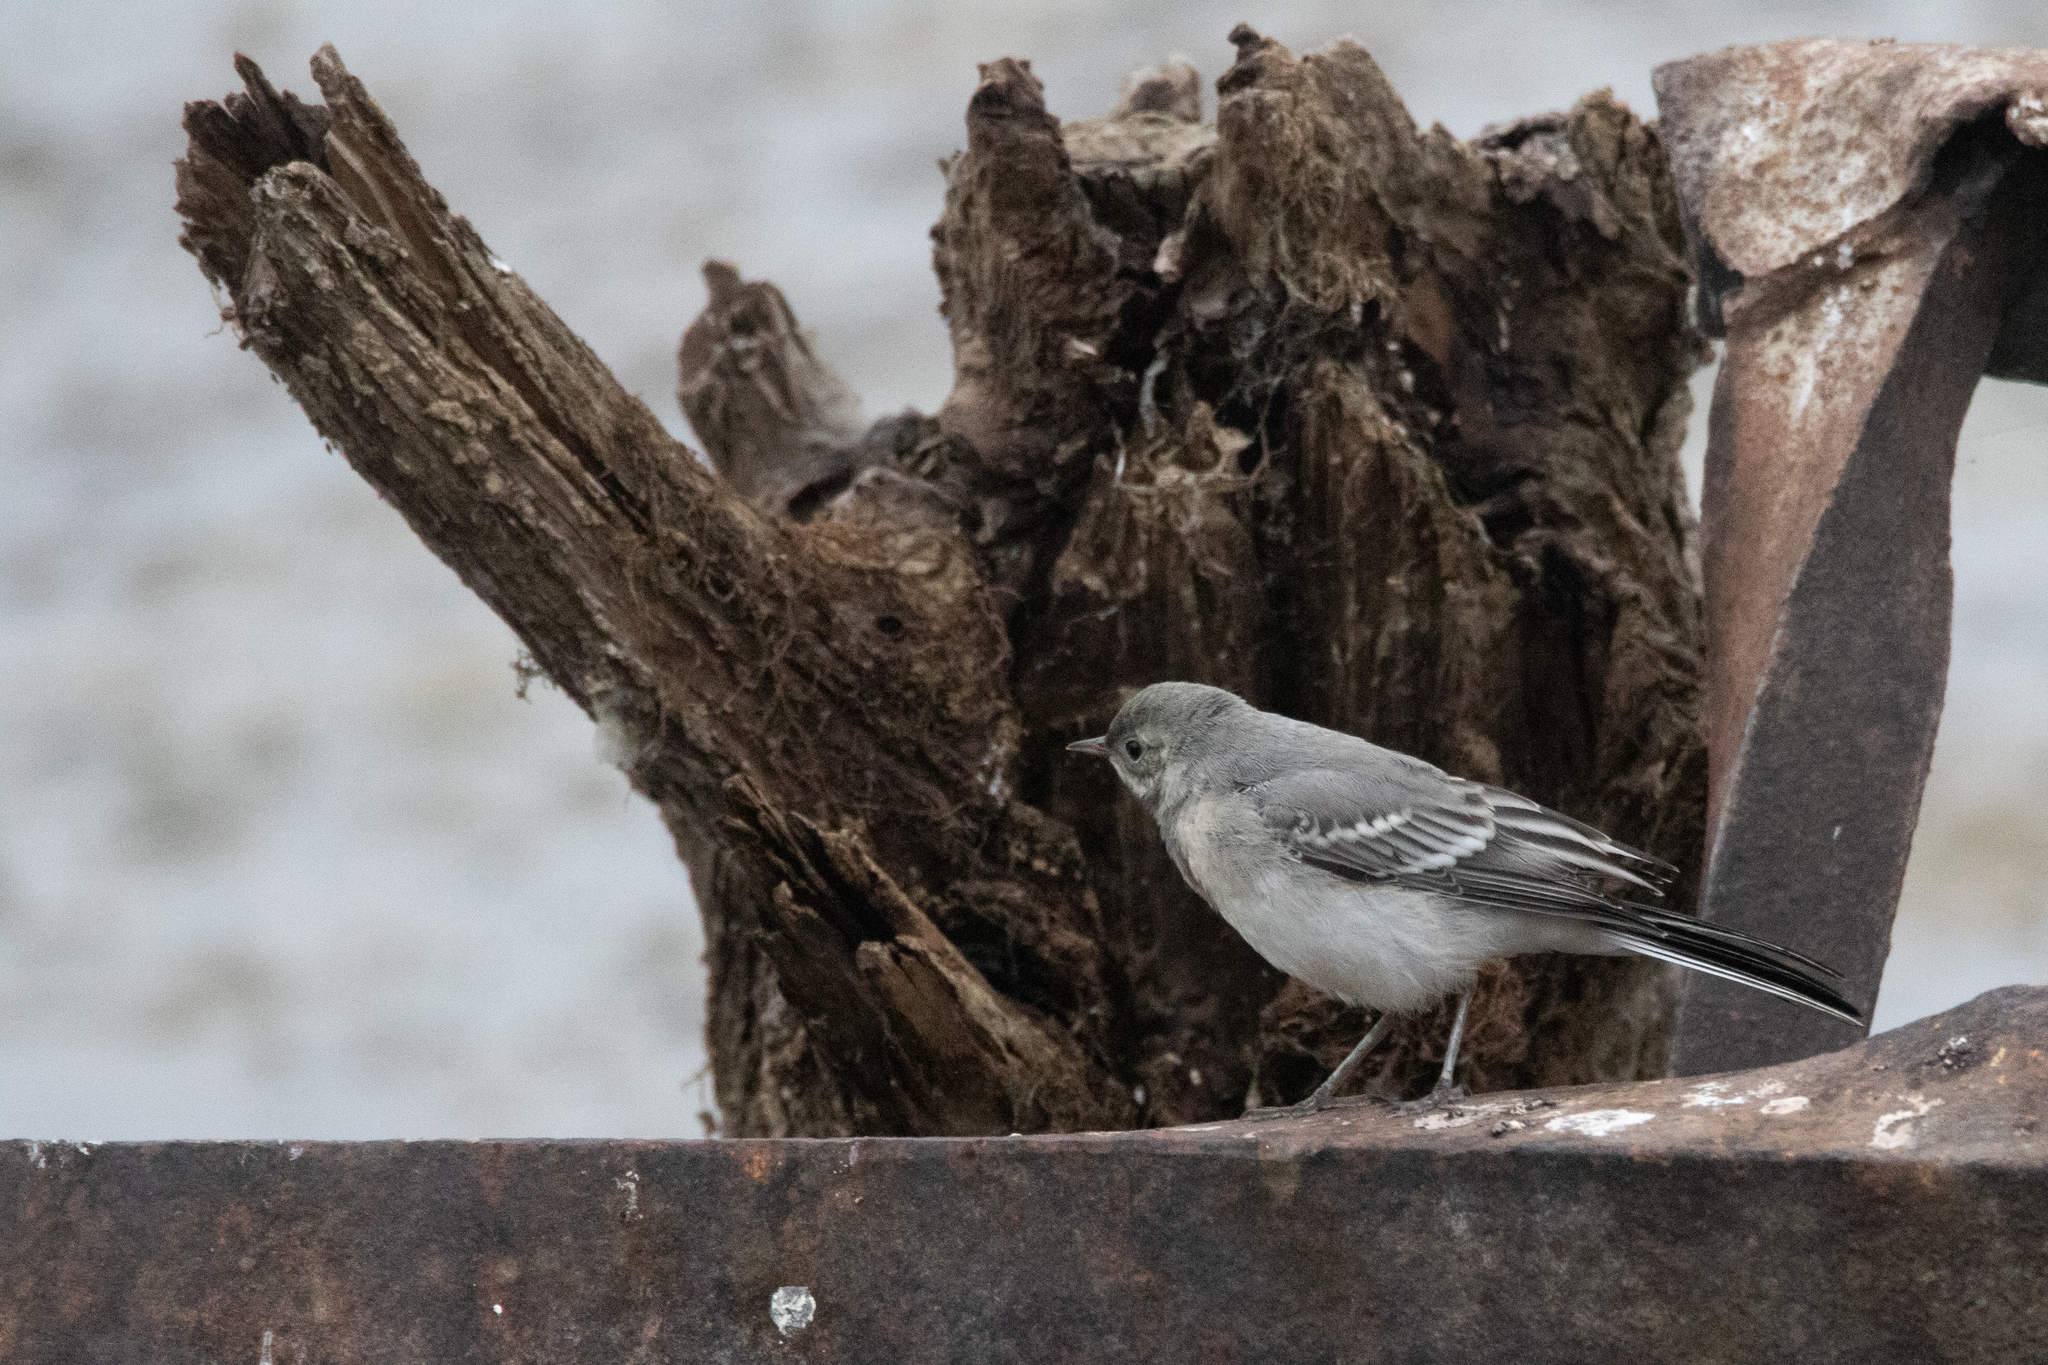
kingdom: Animalia
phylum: Chordata
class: Aves
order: Passeriformes
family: Motacillidae
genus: Motacilla
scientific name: Motacilla alba
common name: White wagtail
